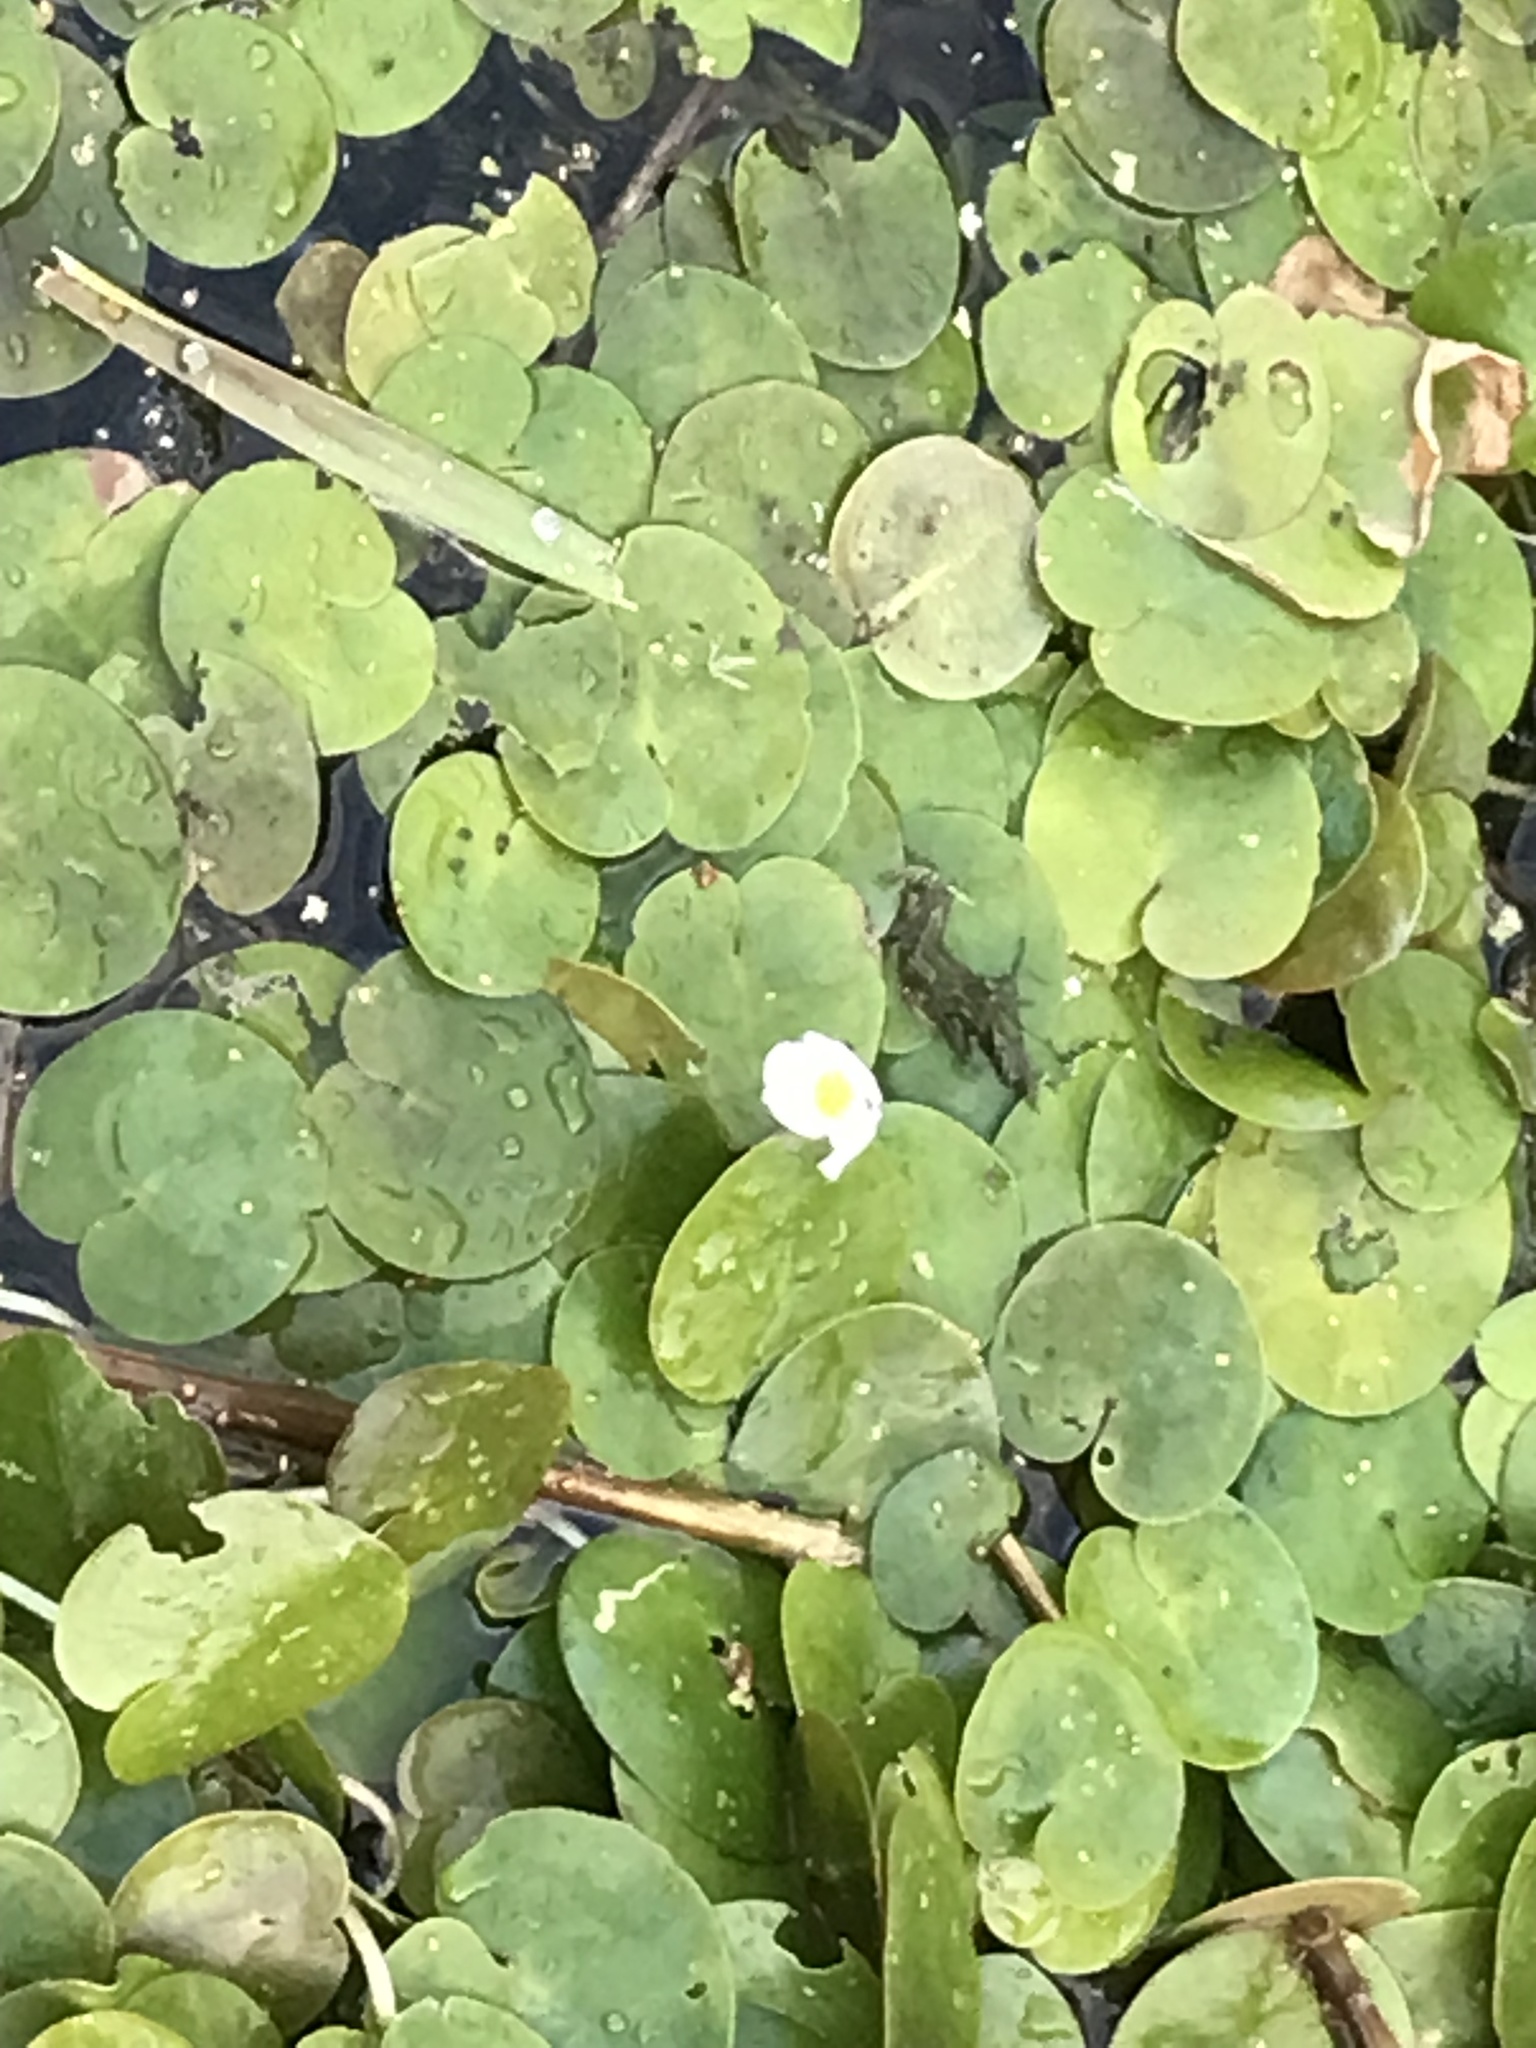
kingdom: Plantae
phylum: Tracheophyta
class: Liliopsida
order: Alismatales
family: Hydrocharitaceae
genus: Hydrocharis
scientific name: Hydrocharis morsus-ranae
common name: Frogbit
